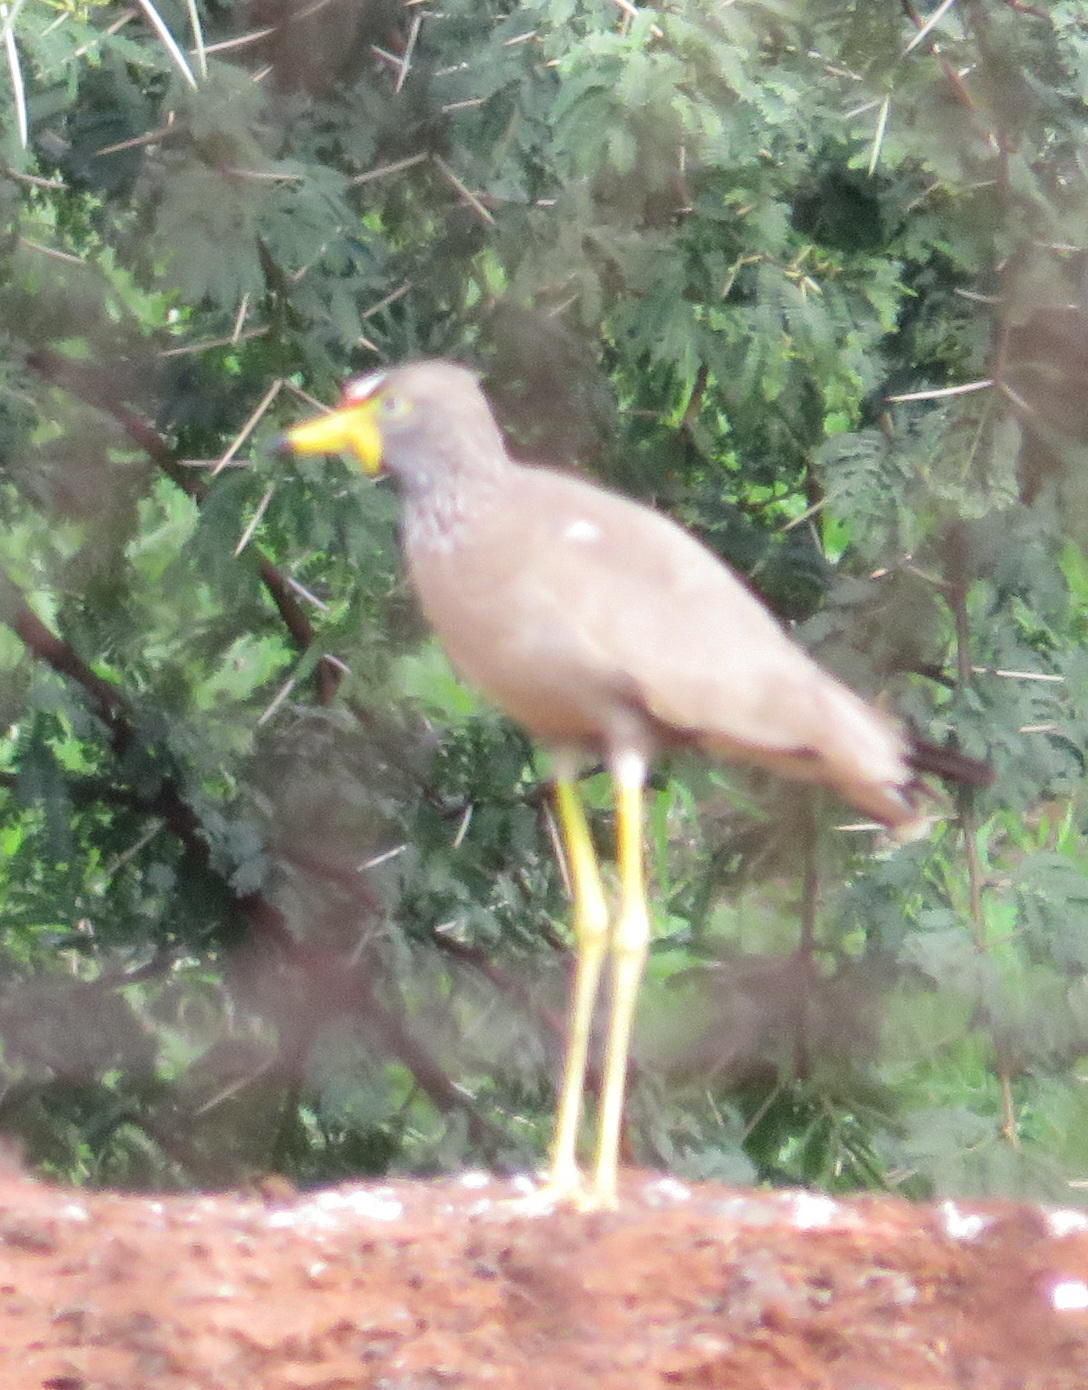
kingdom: Animalia
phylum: Chordata
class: Aves
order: Charadriiformes
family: Charadriidae
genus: Vanellus
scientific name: Vanellus senegallus
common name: African wattled lapwing
